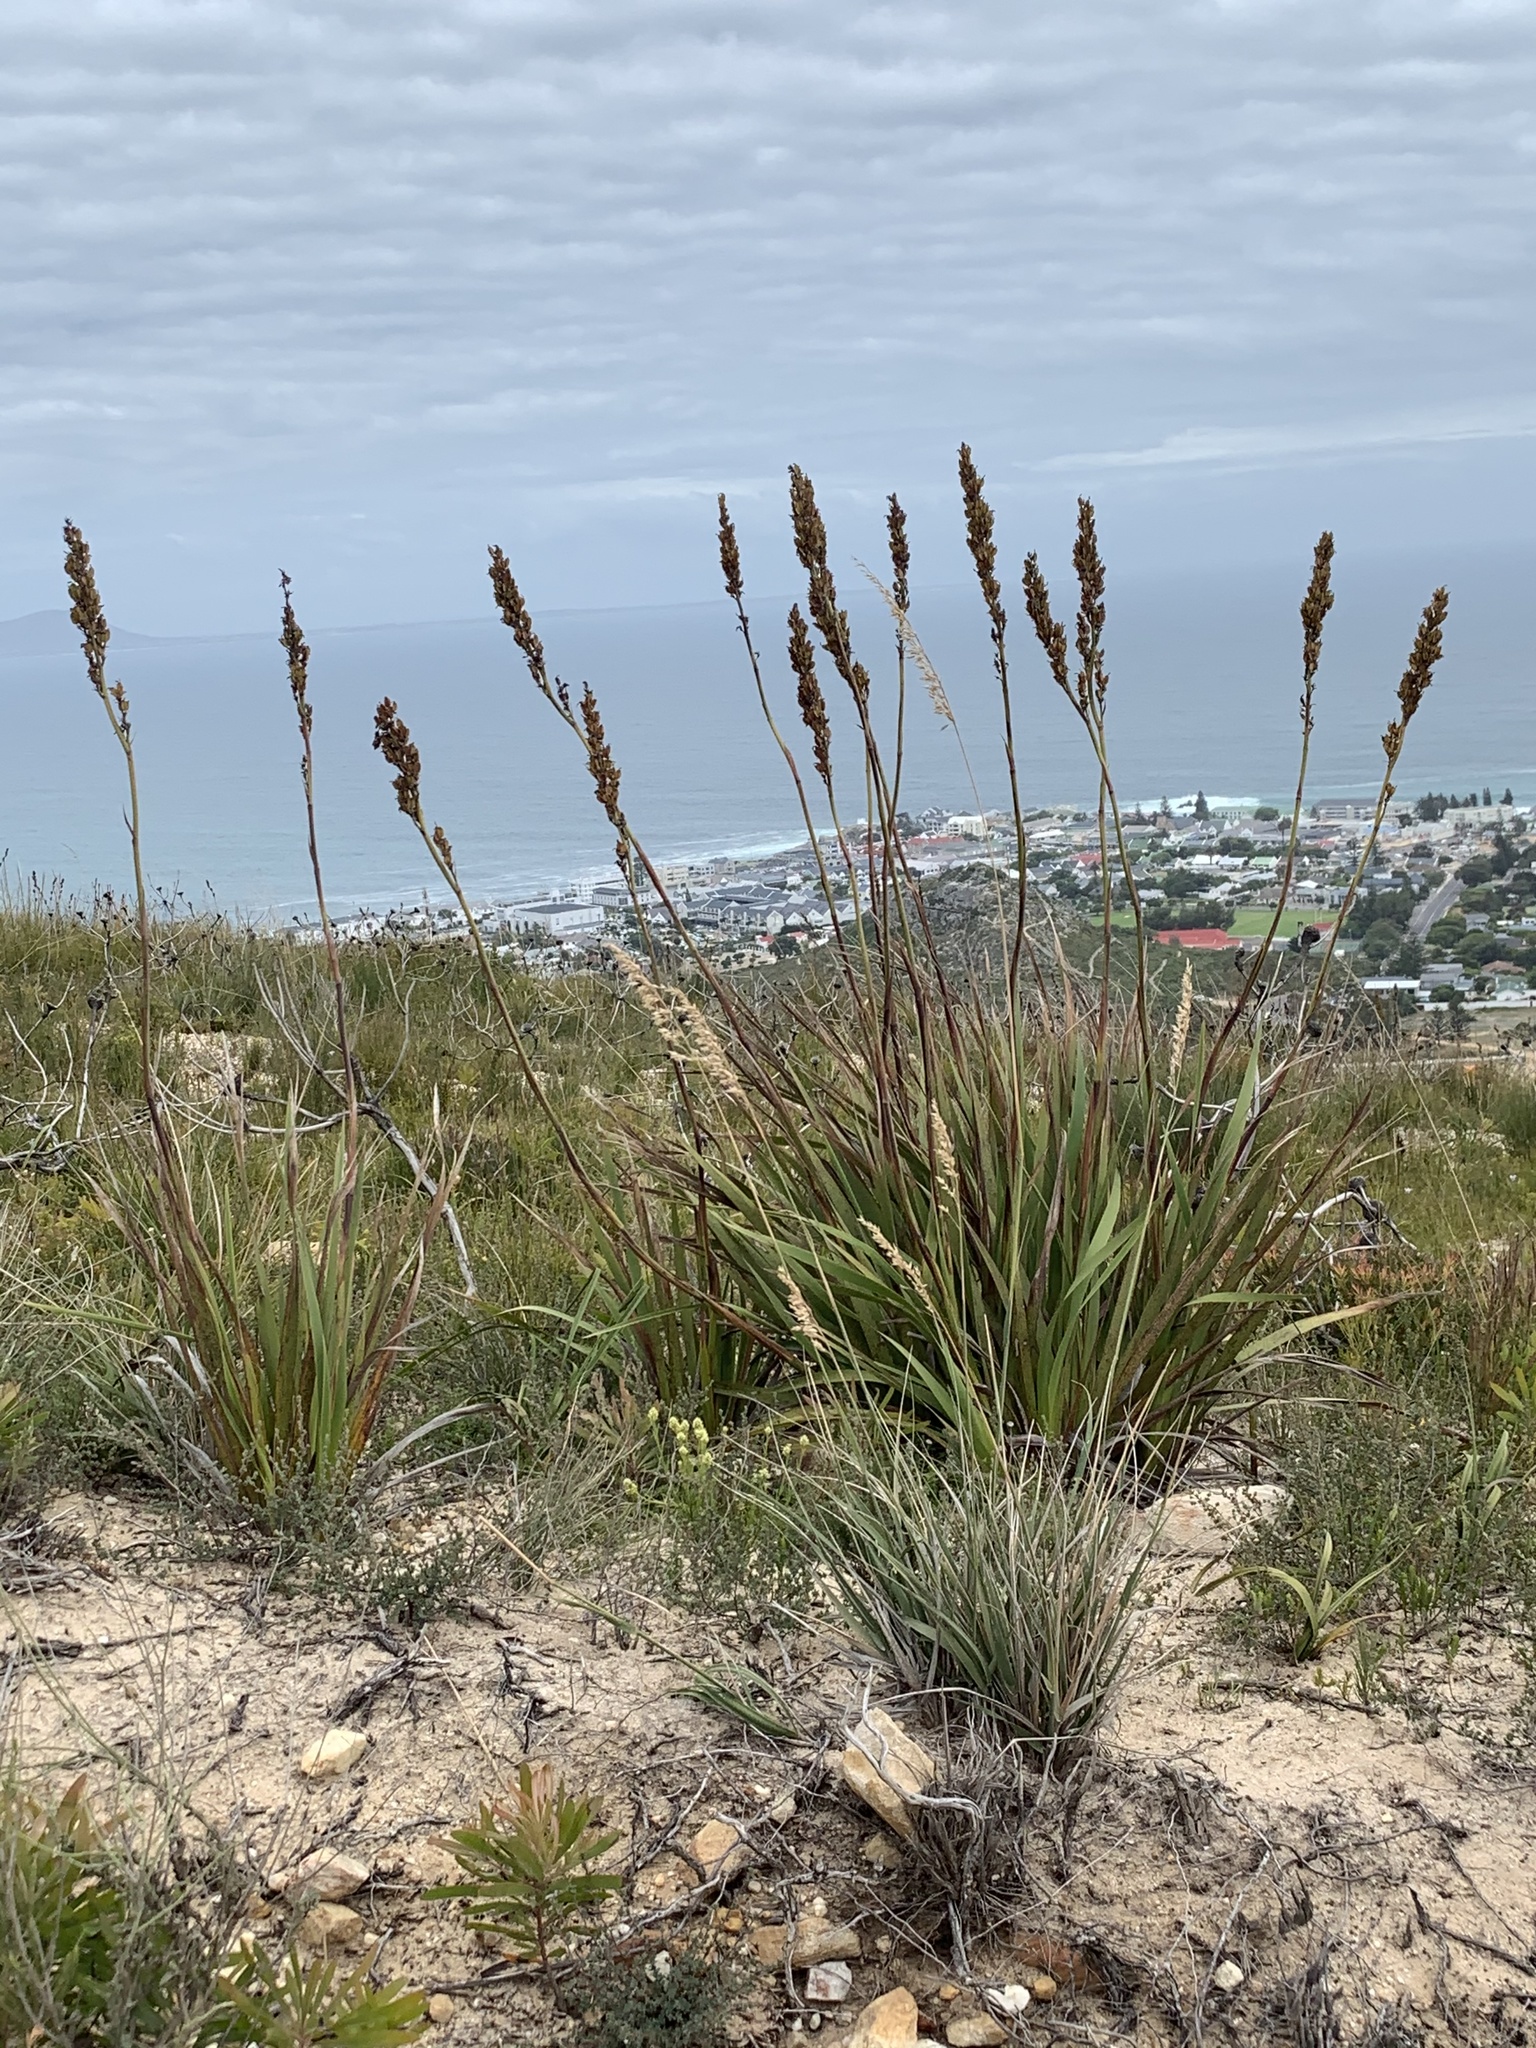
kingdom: Plantae
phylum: Tracheophyta
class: Liliopsida
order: Asparagales
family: Iridaceae
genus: Aristea
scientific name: Aristea capitata
